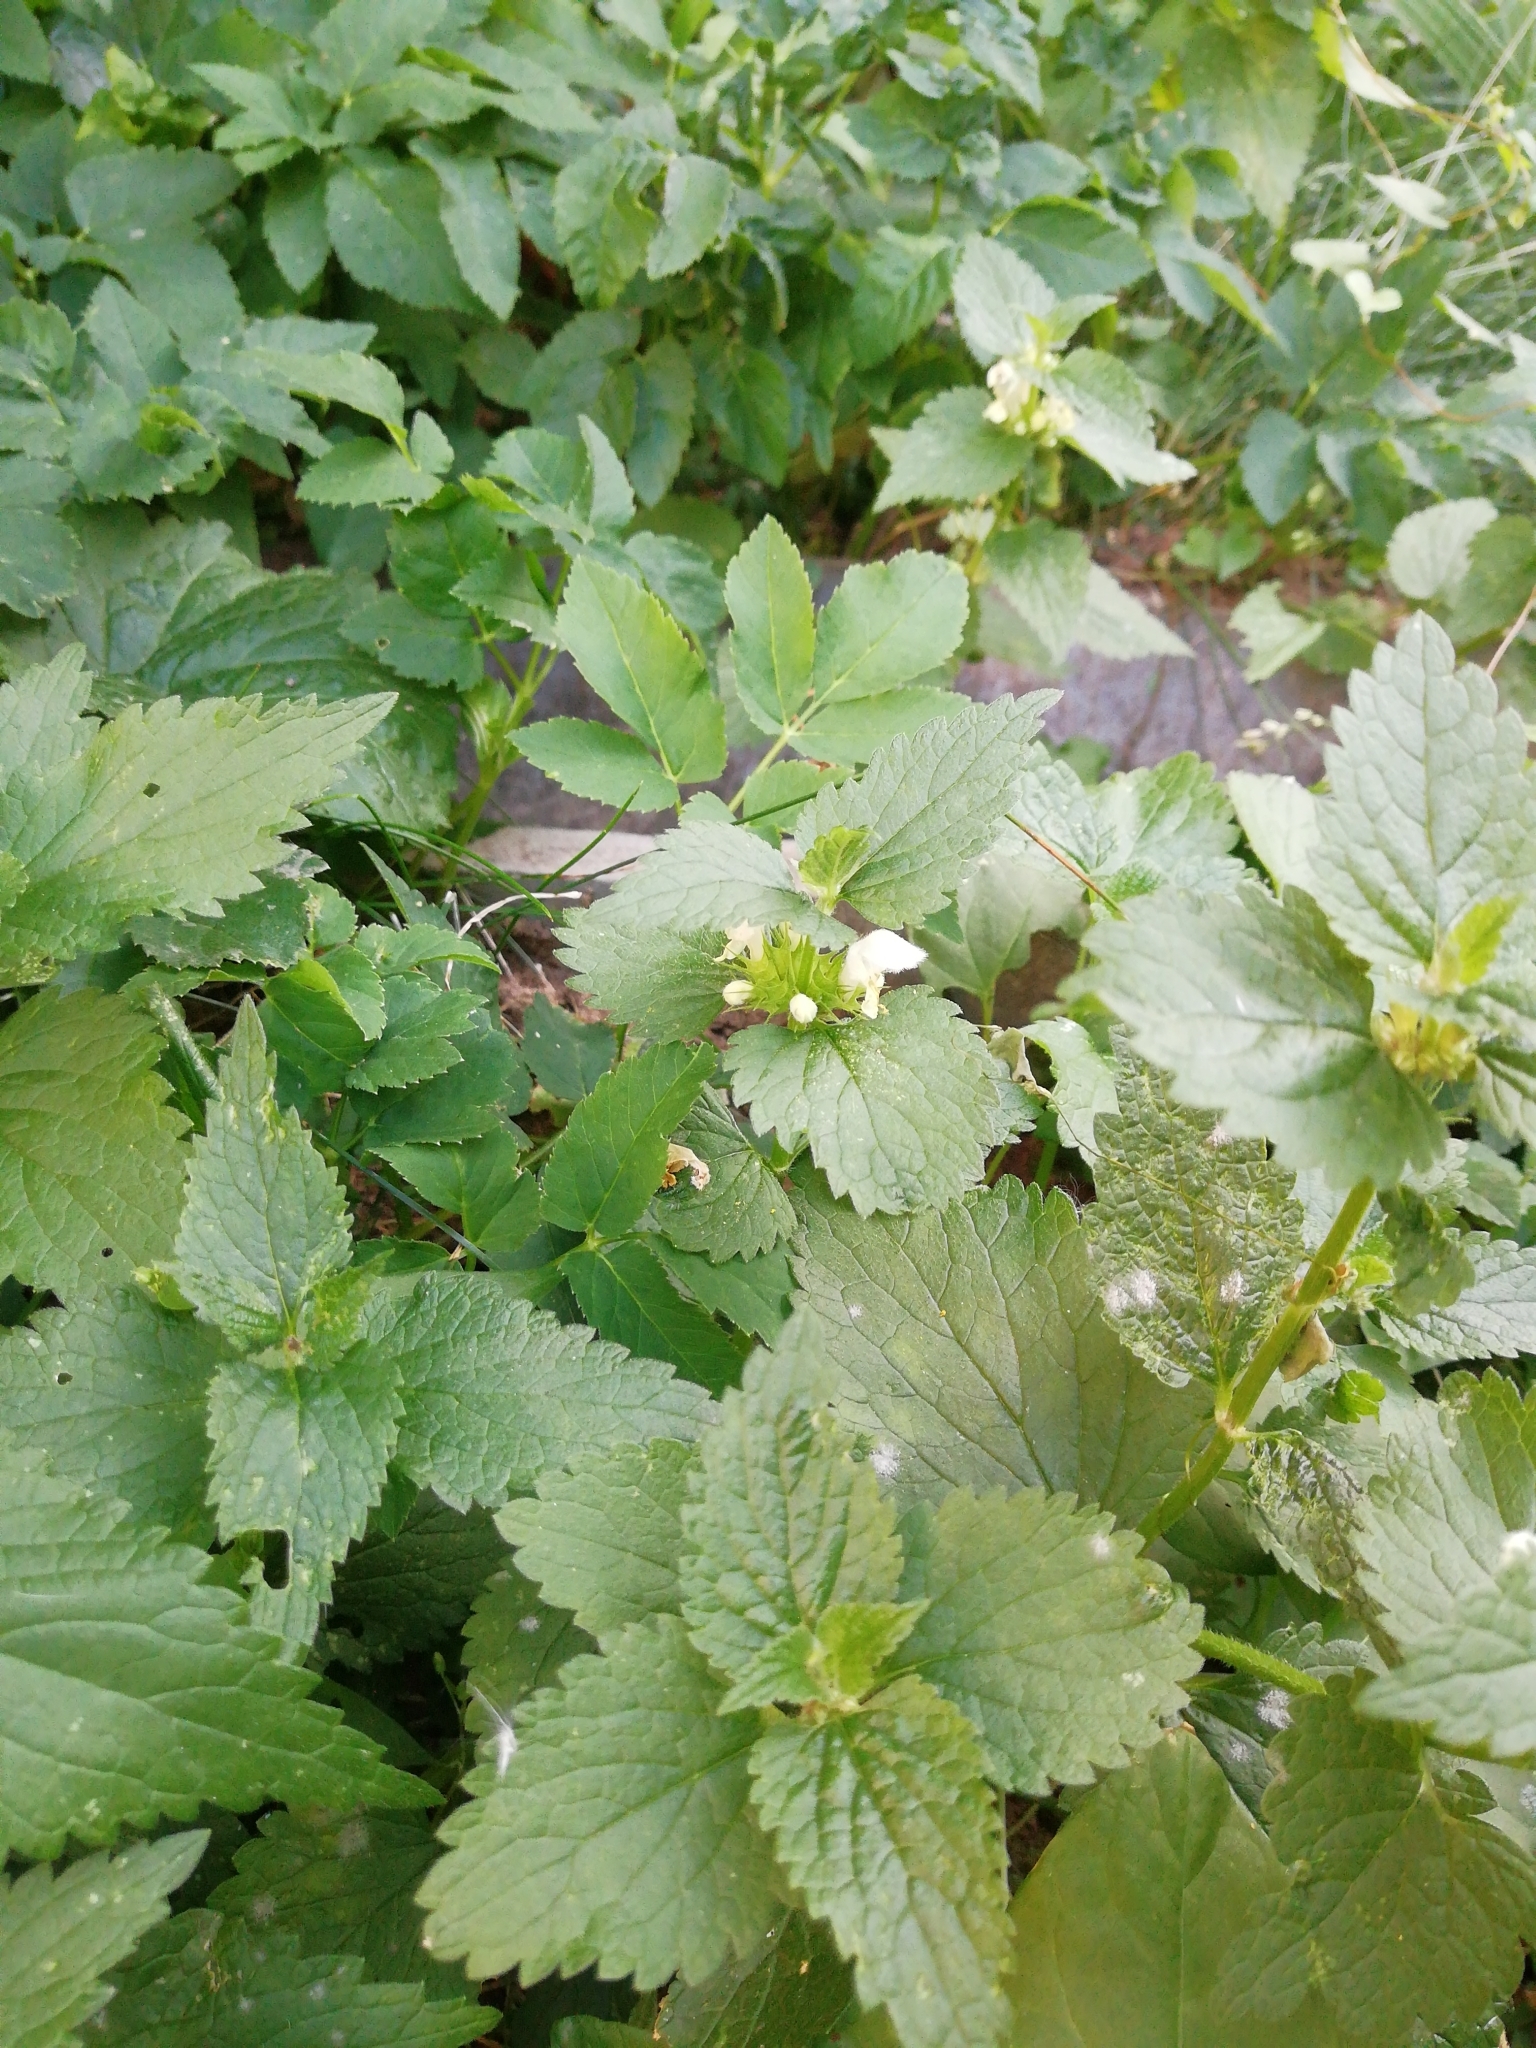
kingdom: Plantae
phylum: Tracheophyta
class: Magnoliopsida
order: Lamiales
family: Lamiaceae
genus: Lamium
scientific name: Lamium album
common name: White dead-nettle
